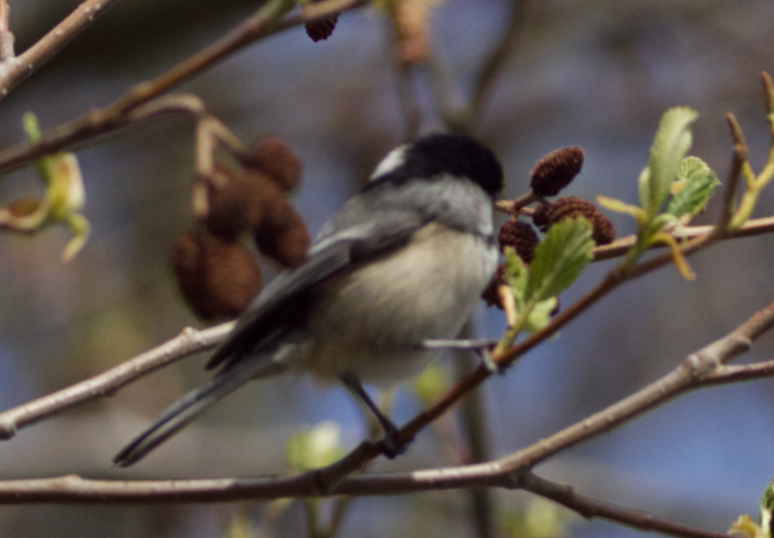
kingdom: Animalia
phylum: Chordata
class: Aves
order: Passeriformes
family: Paridae
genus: Poecile
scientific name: Poecile atricapillus
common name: Black-capped chickadee
